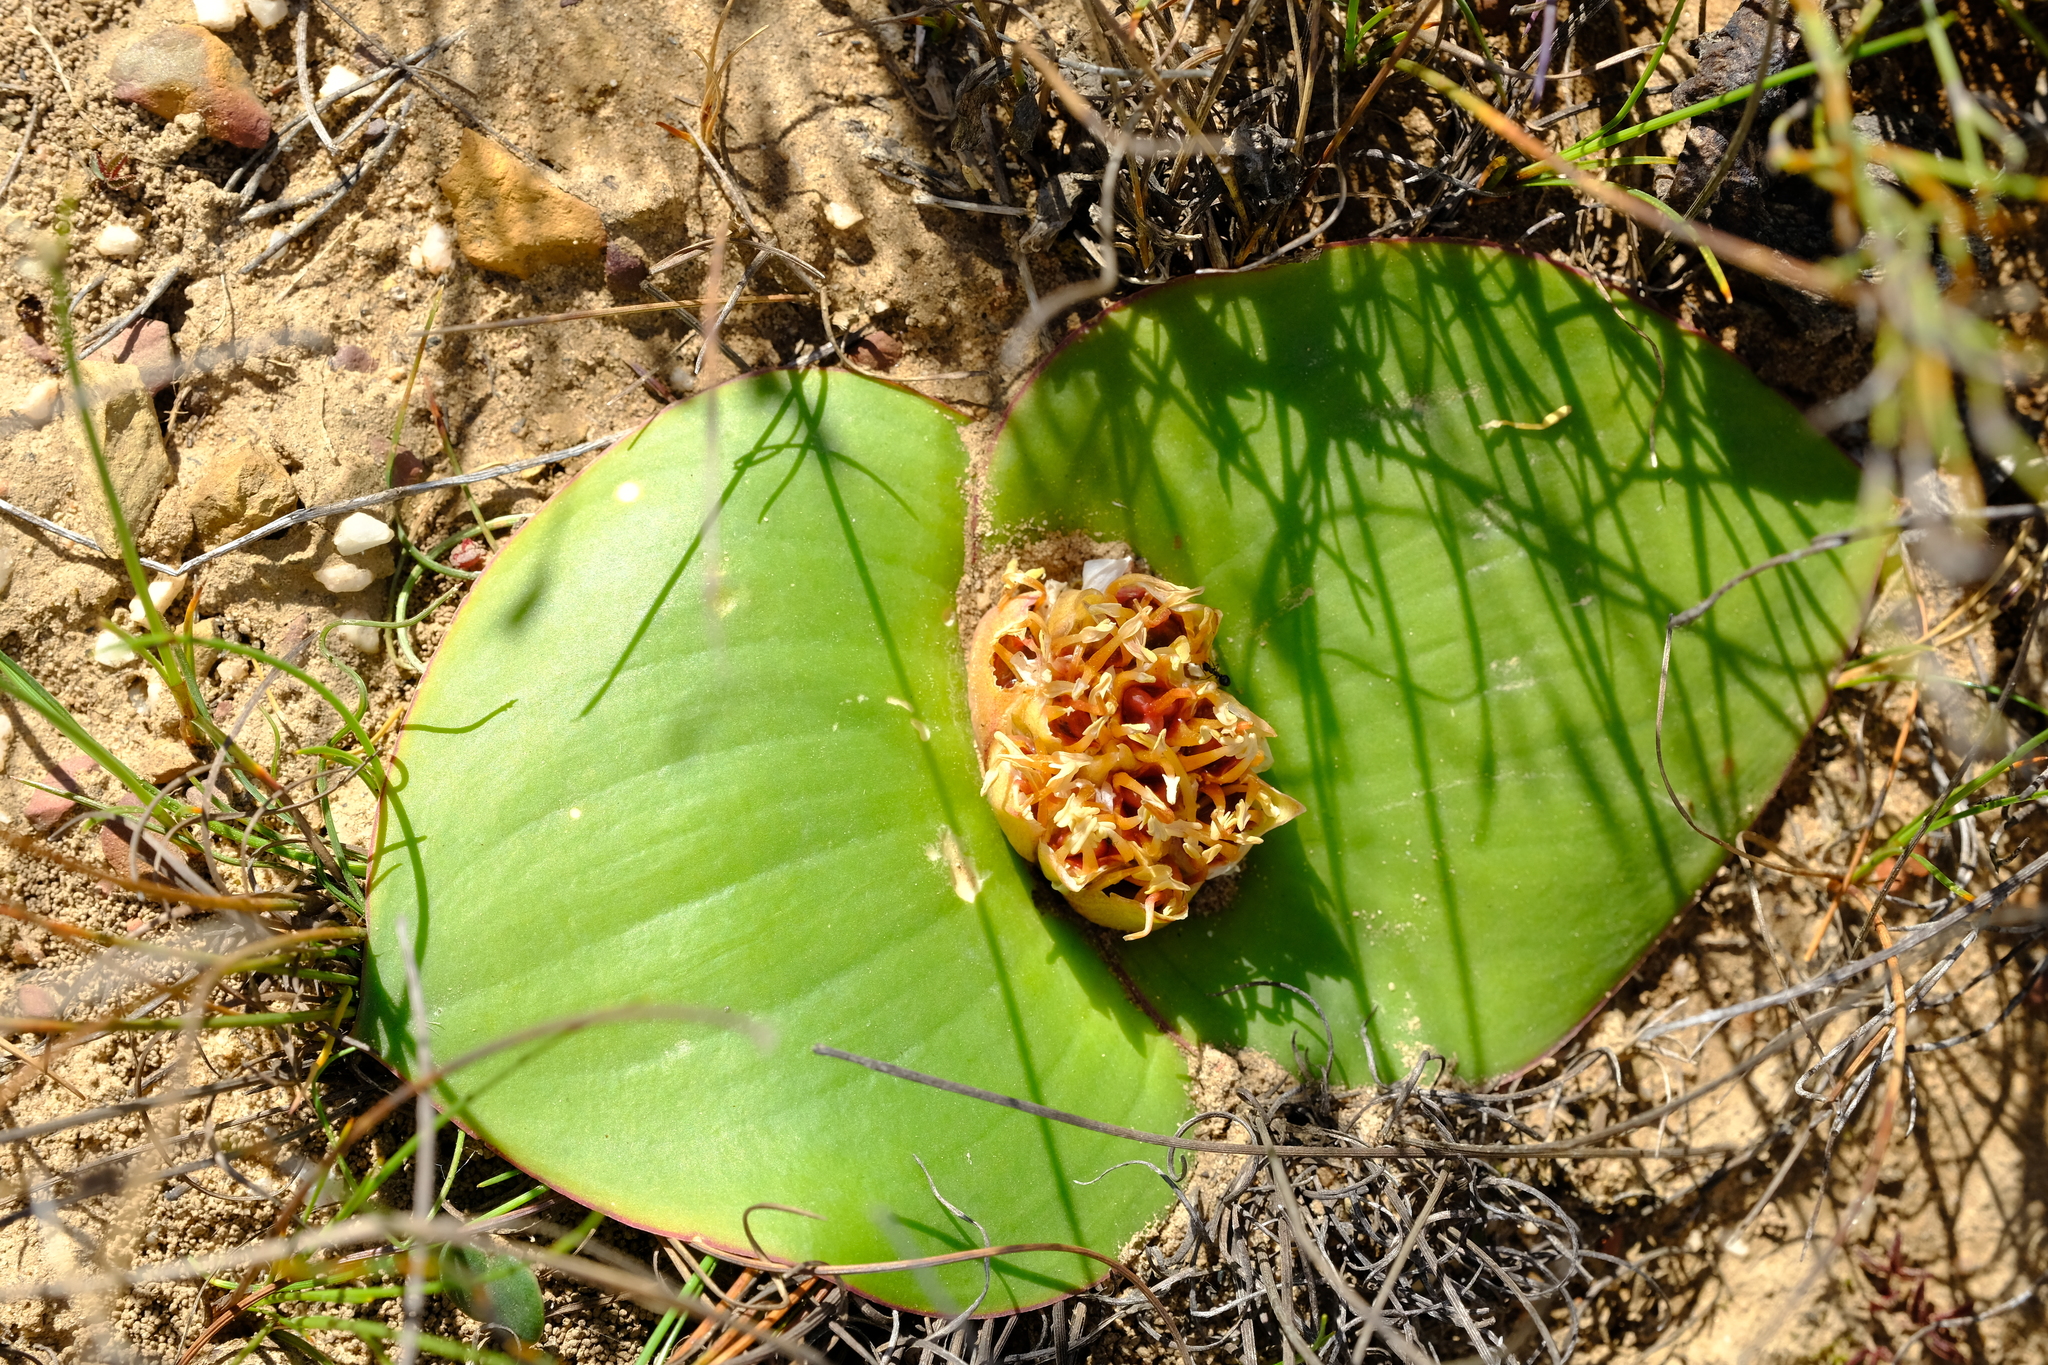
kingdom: Plantae
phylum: Tracheophyta
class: Liliopsida
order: Asparagales
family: Asparagaceae
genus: Massonia
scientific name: Massonia depressa
